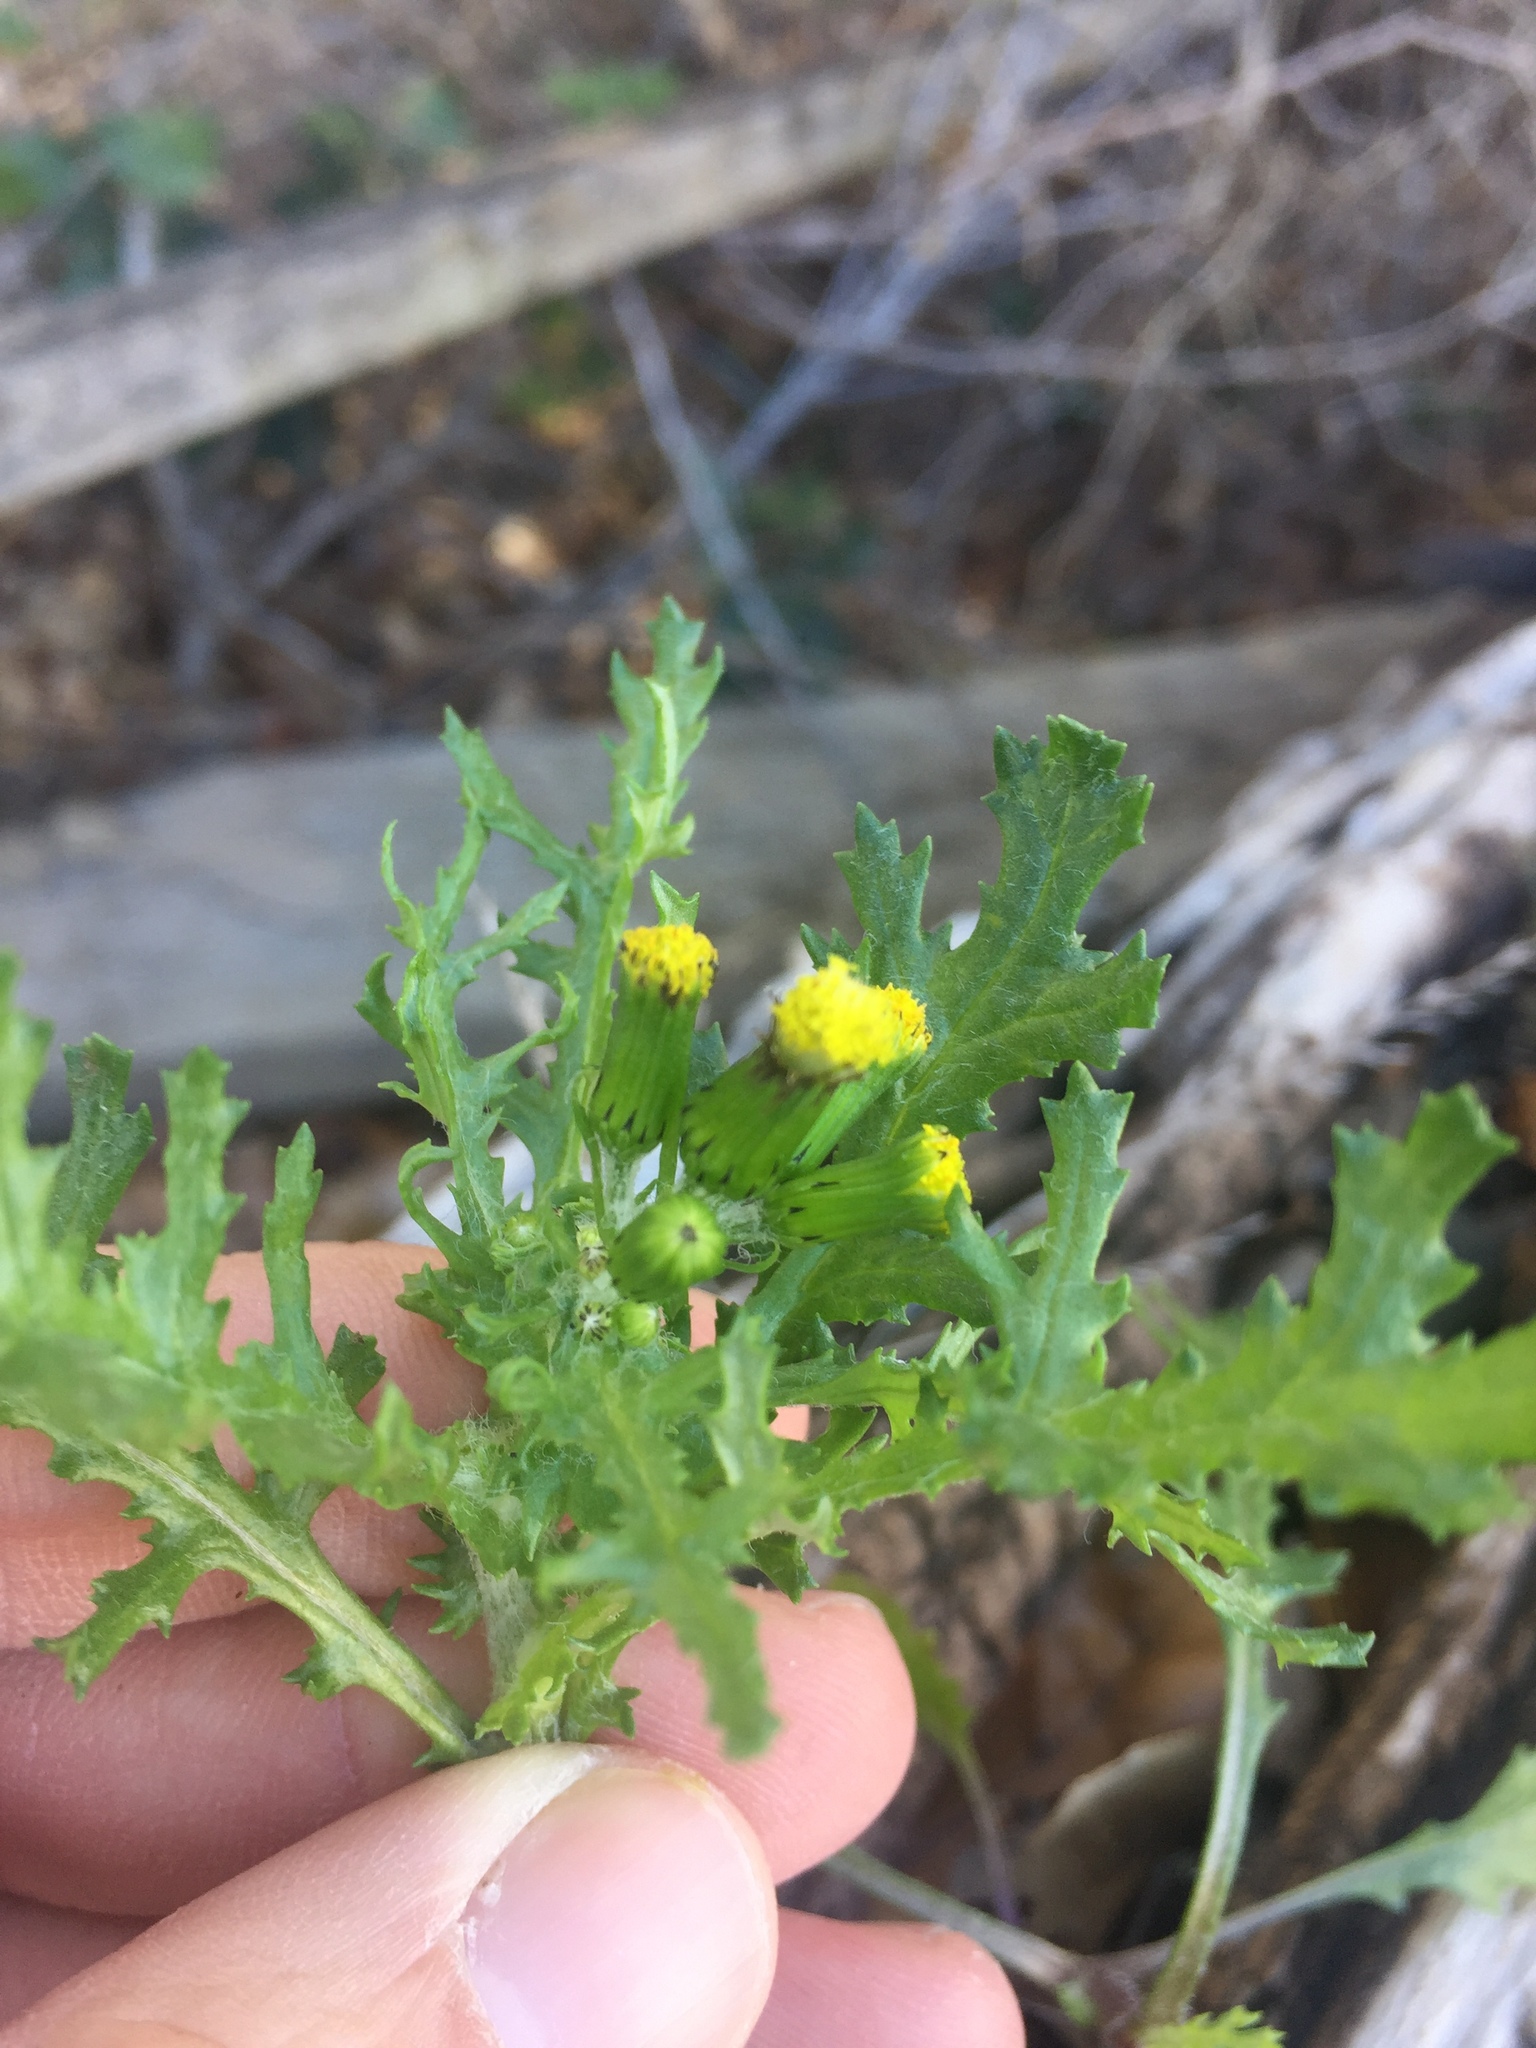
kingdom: Plantae
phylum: Tracheophyta
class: Magnoliopsida
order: Asterales
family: Asteraceae
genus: Senecio
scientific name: Senecio vulgaris
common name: Old-man-in-the-spring
